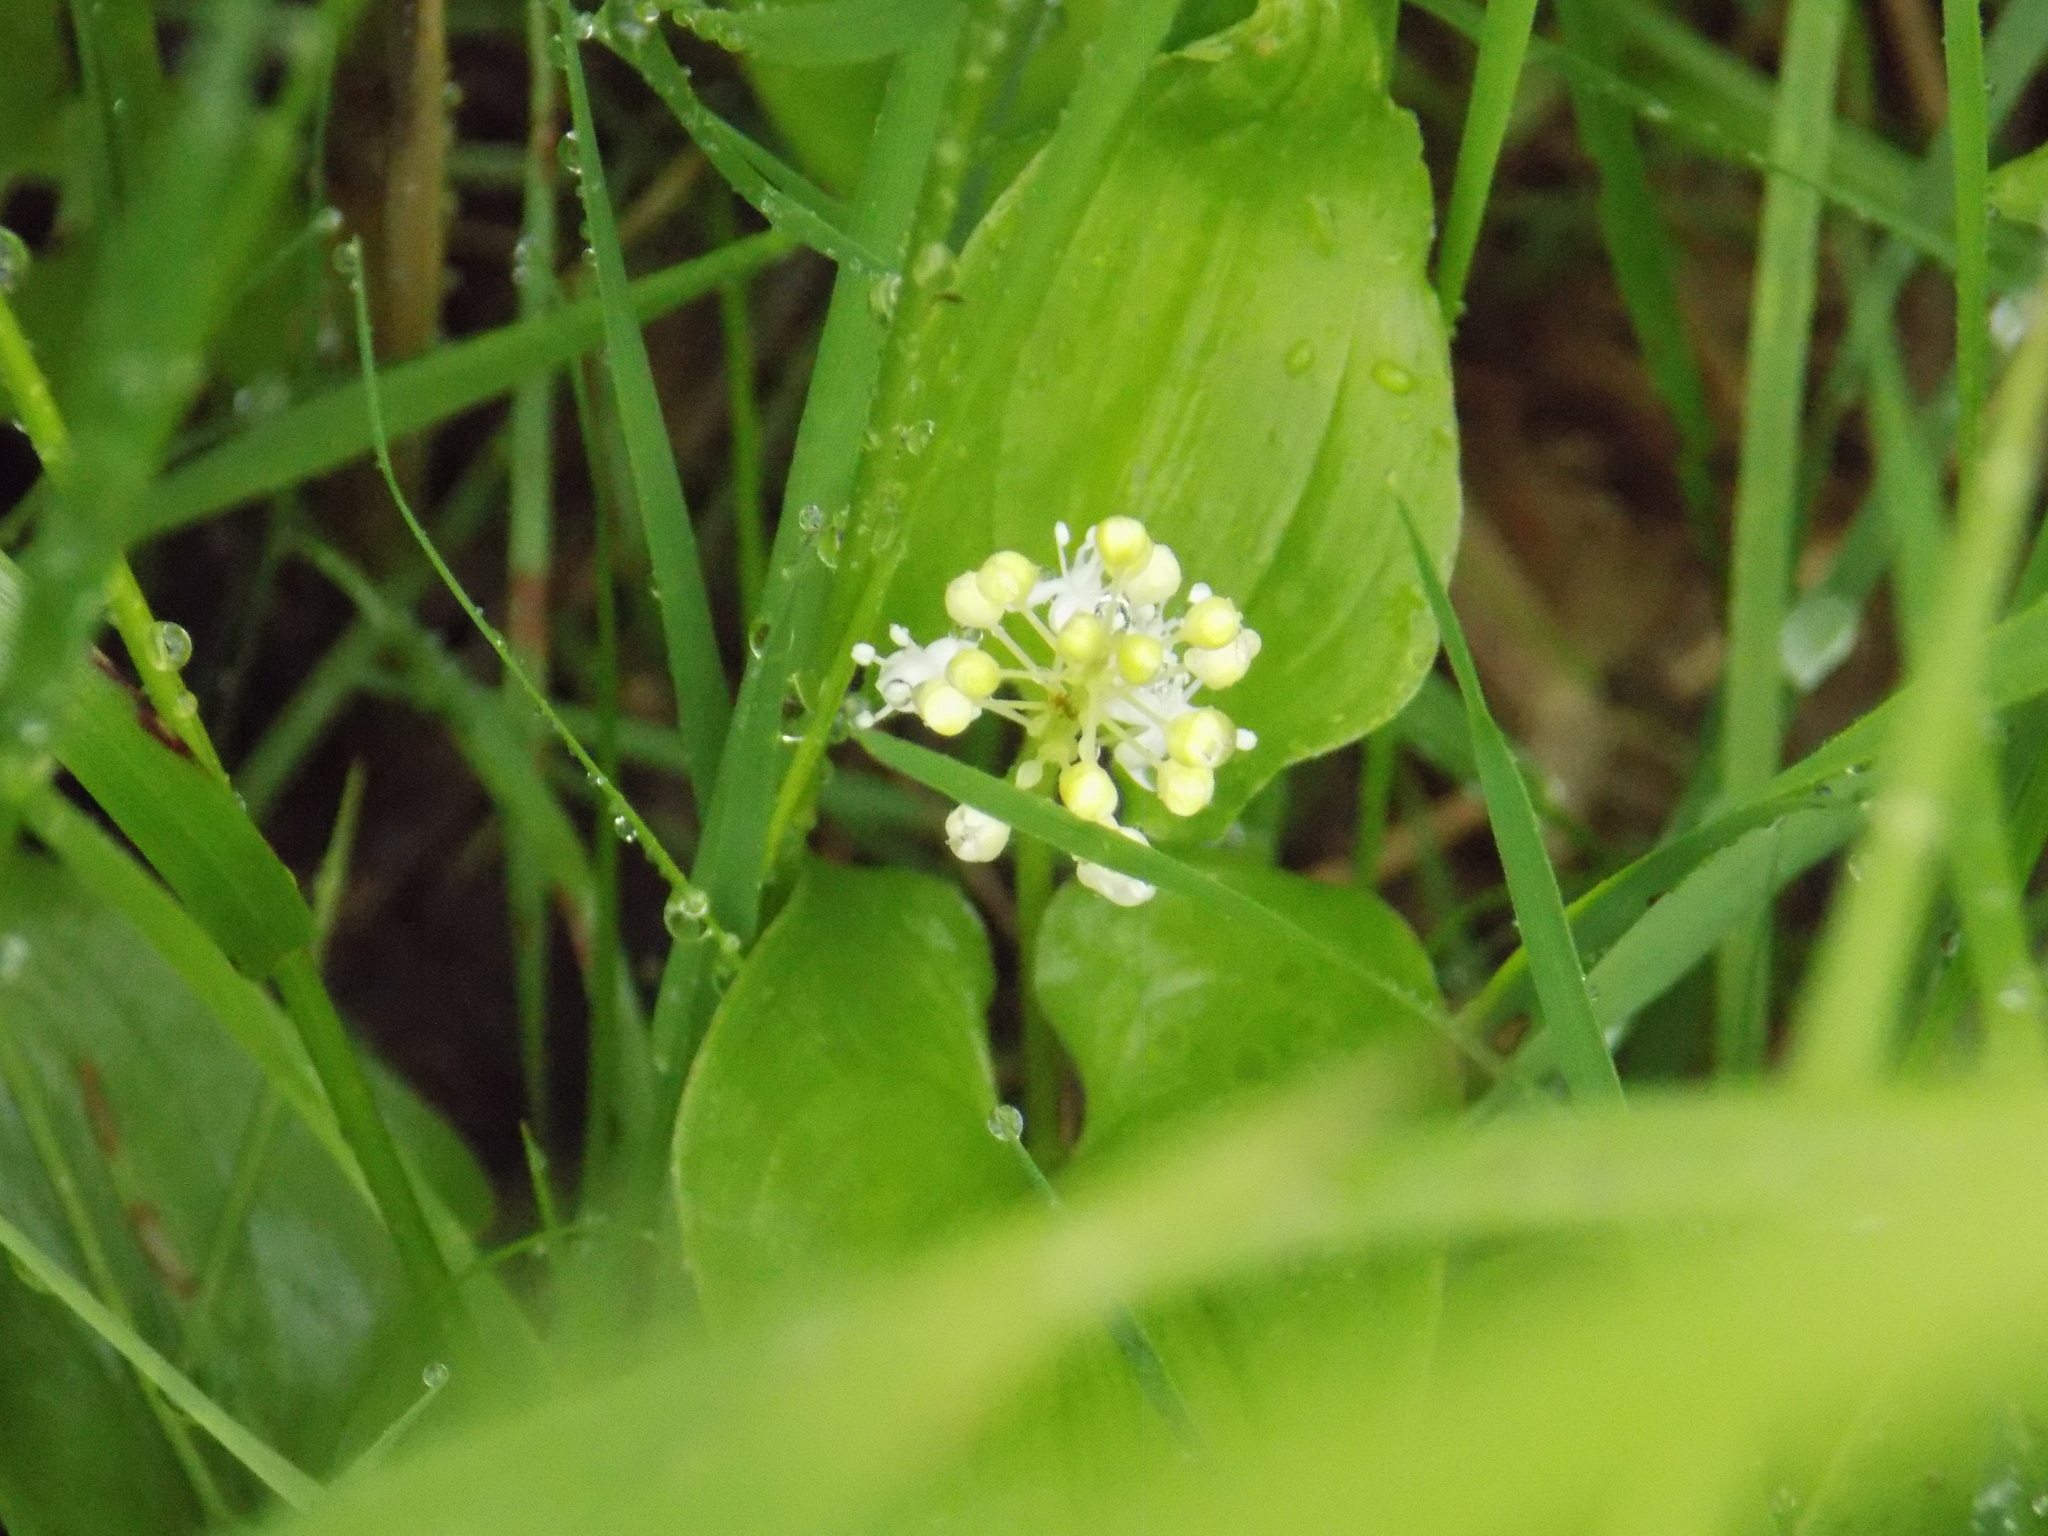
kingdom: Plantae
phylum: Tracheophyta
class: Liliopsida
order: Asparagales
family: Asparagaceae
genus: Maianthemum
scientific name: Maianthemum bifolium
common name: May lily
